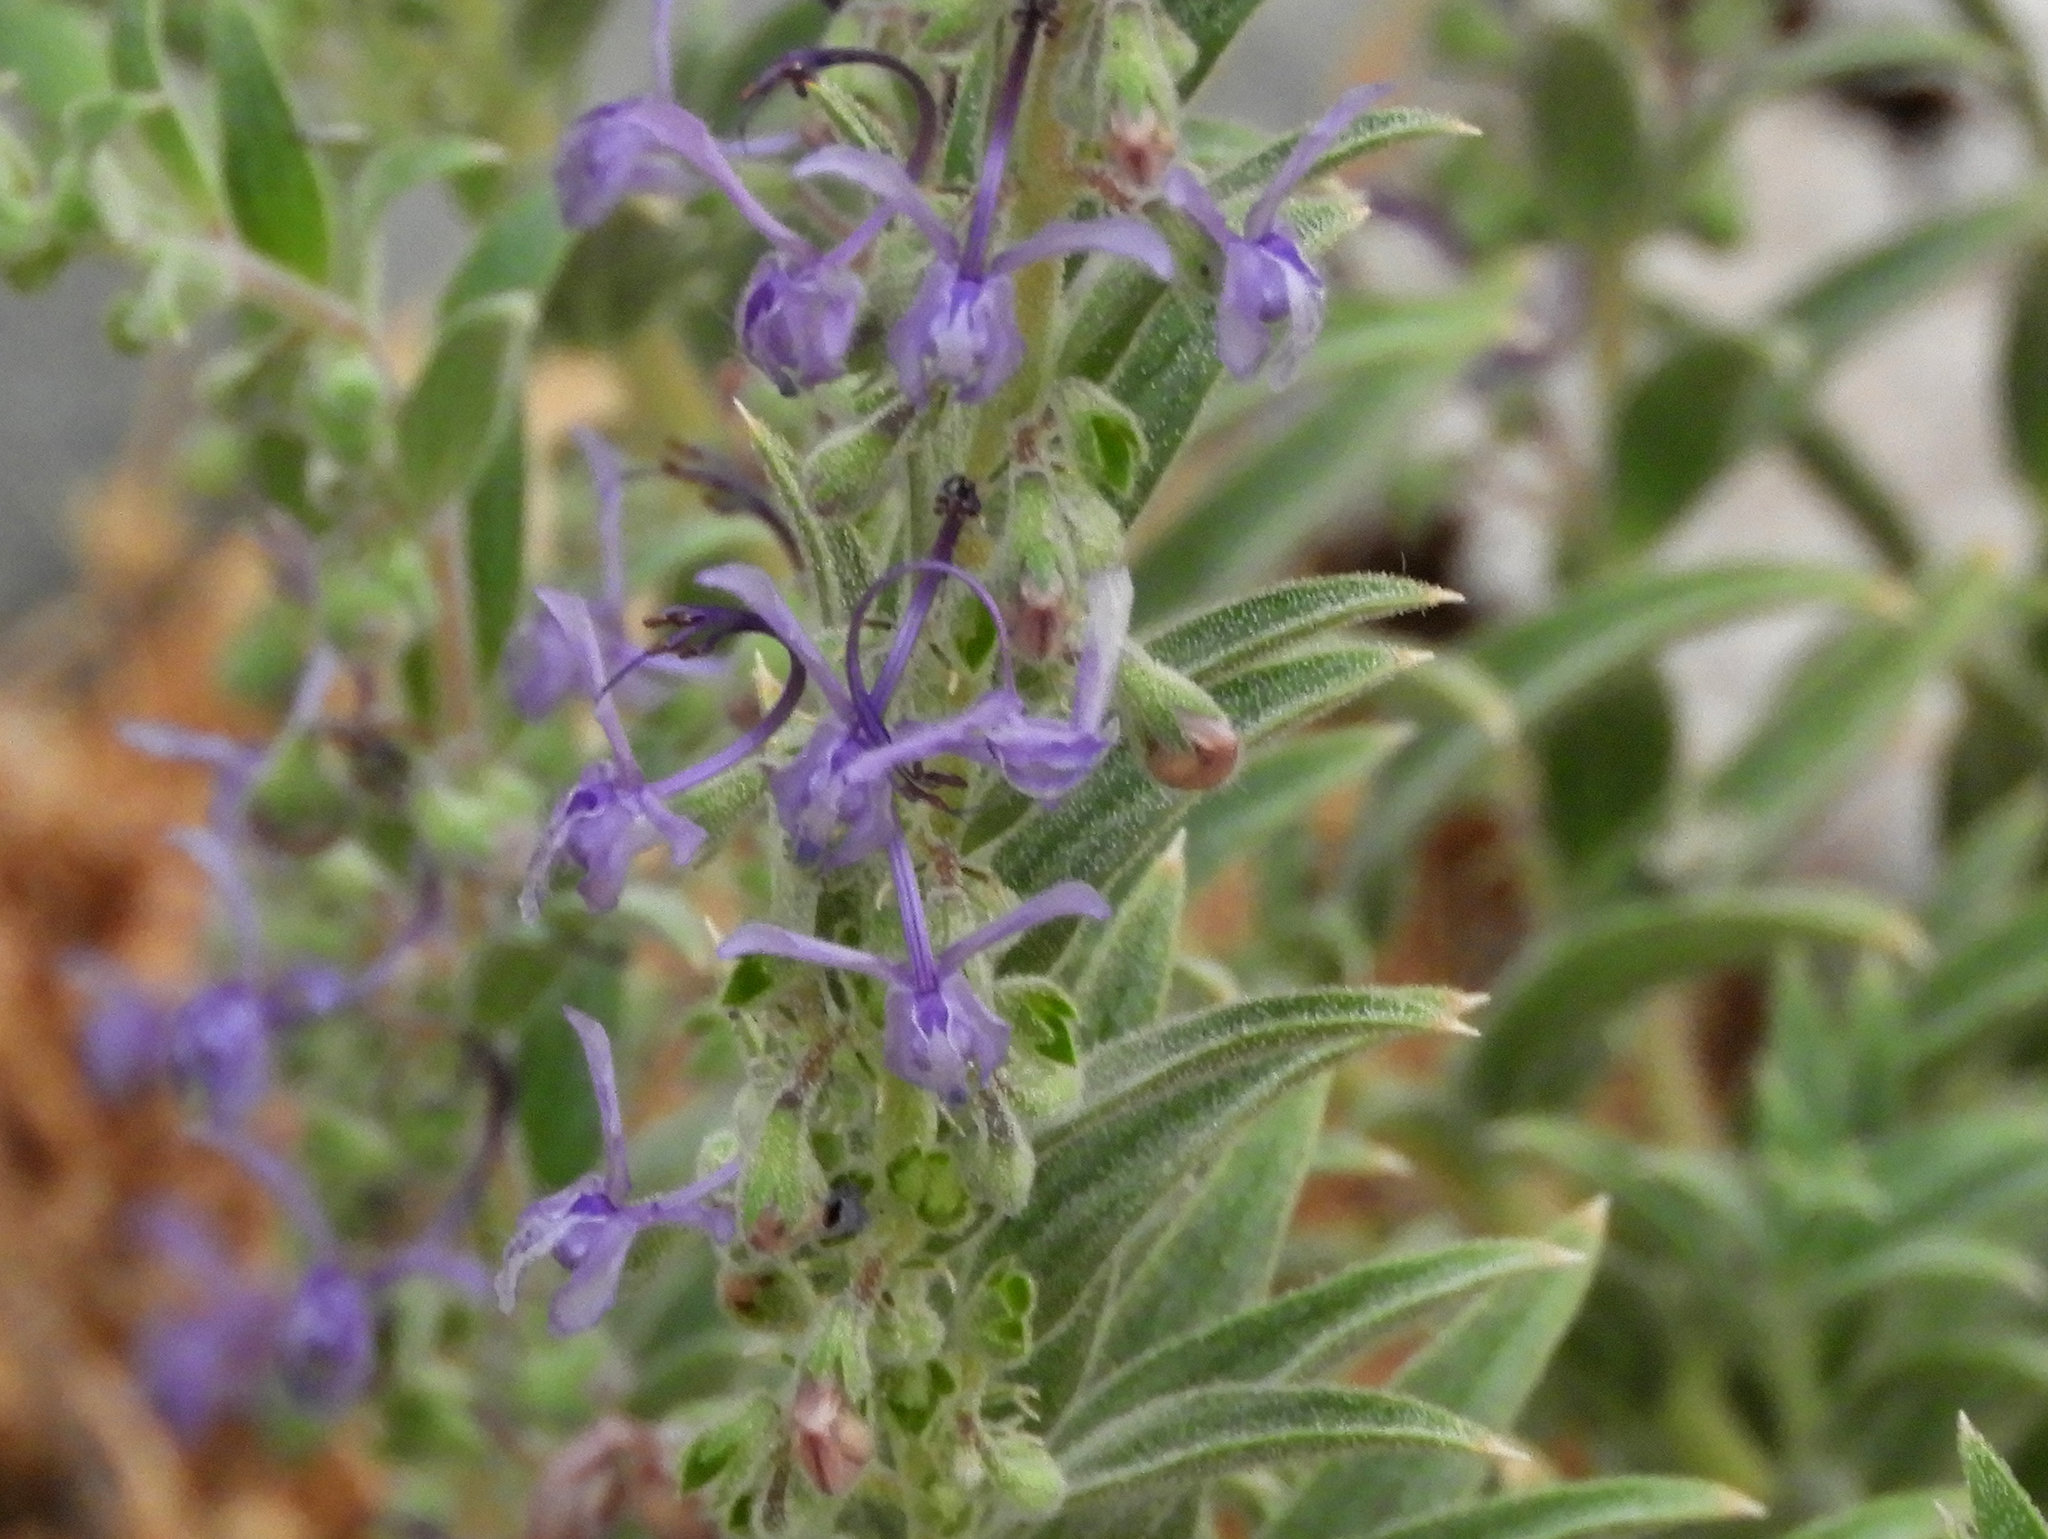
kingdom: Plantae
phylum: Tracheophyta
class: Magnoliopsida
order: Lamiales
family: Lamiaceae
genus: Trichostema
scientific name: Trichostema lanceolatum
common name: Vinegar-weed
